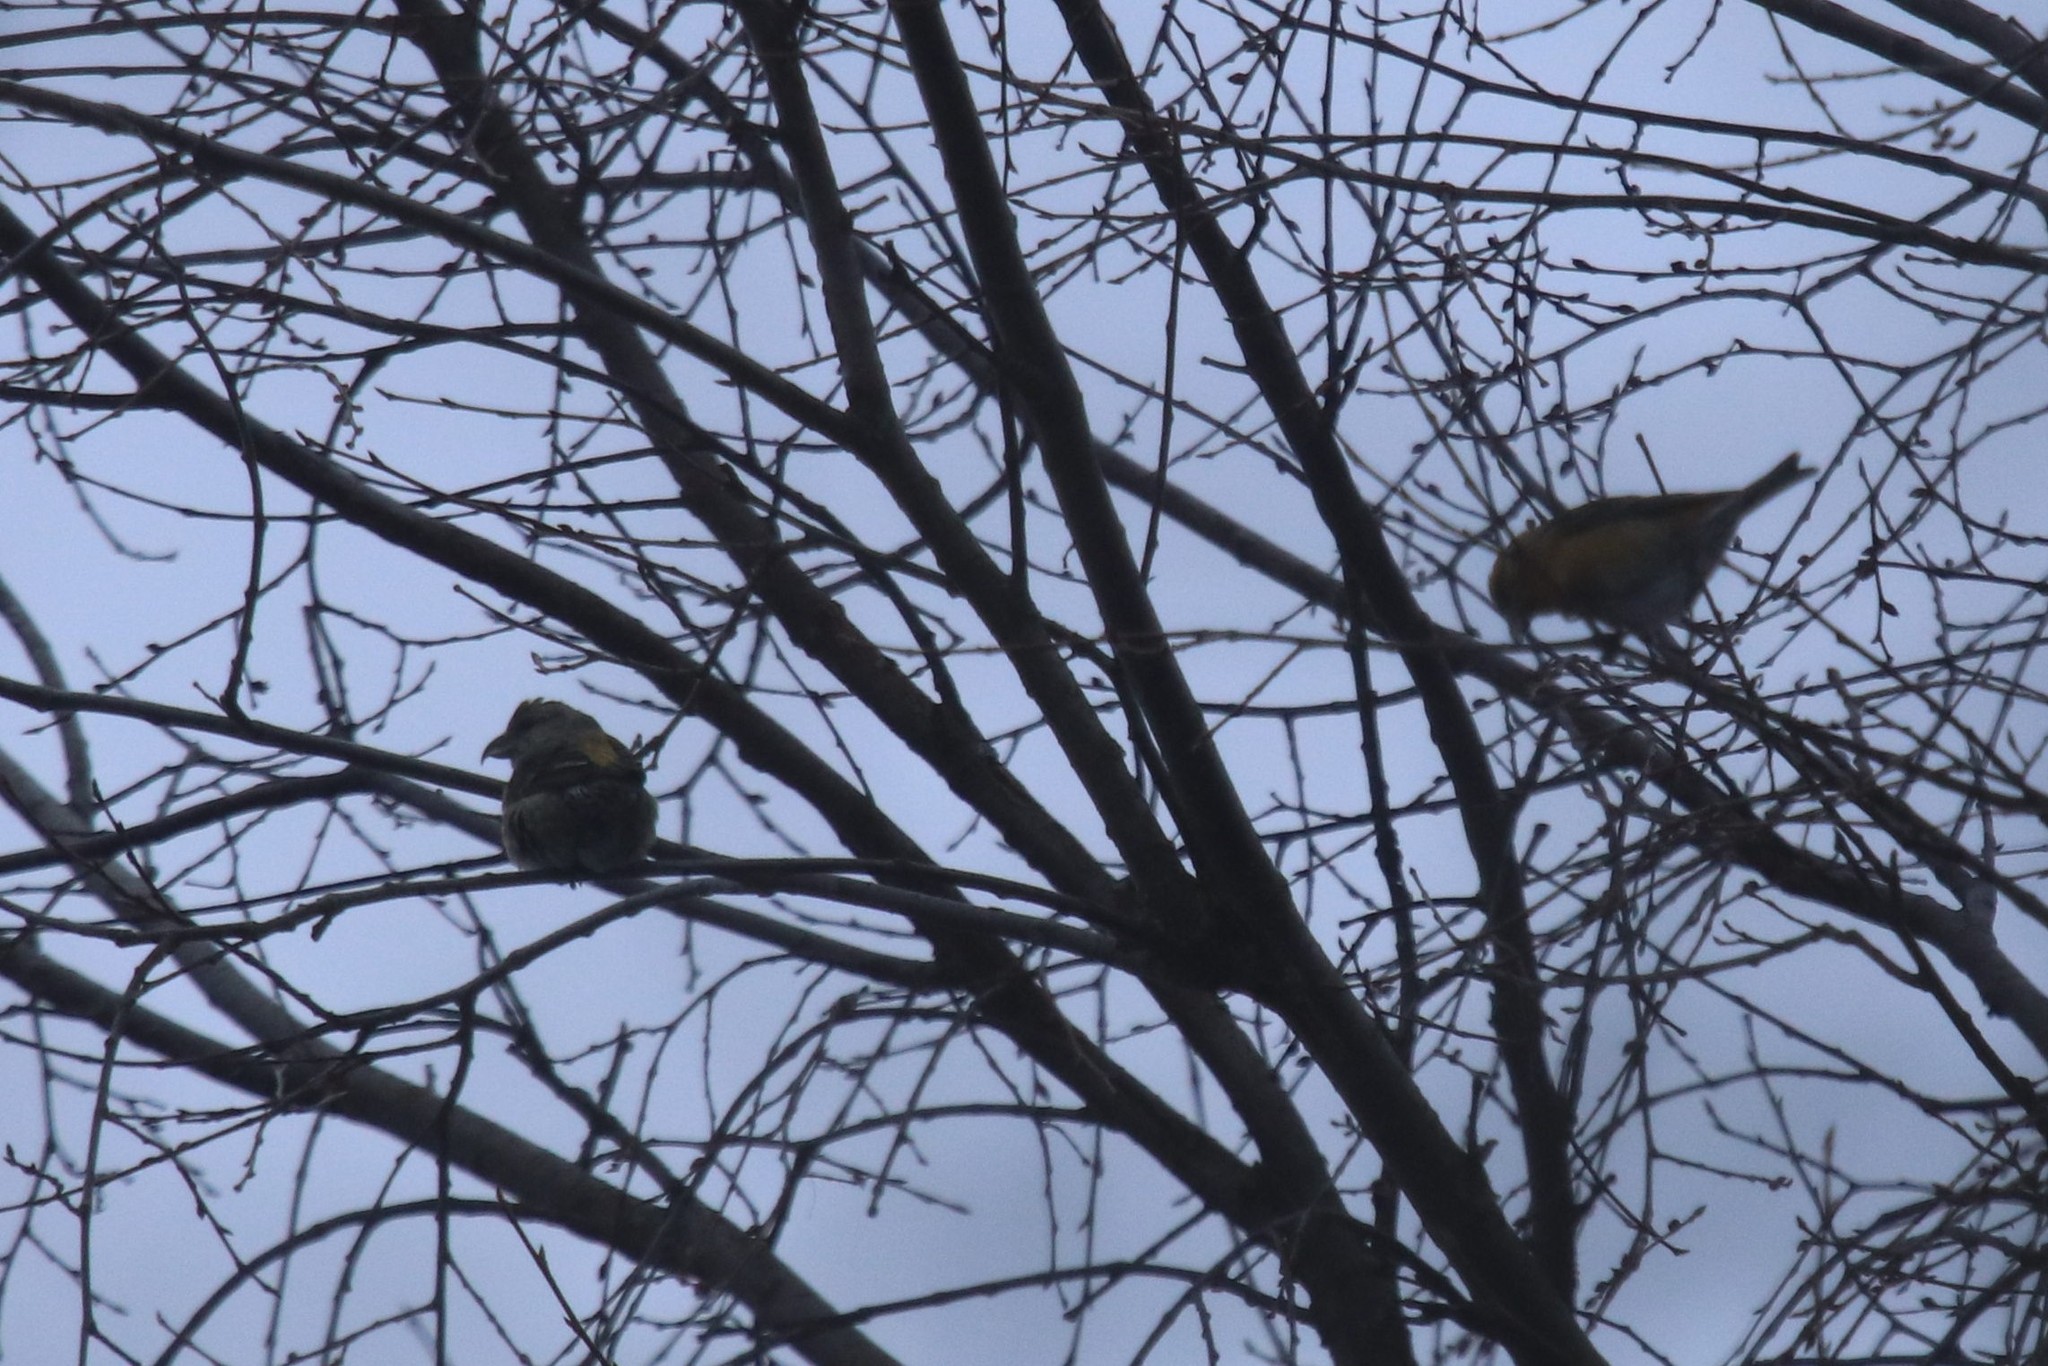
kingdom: Animalia
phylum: Chordata
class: Aves
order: Passeriformes
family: Fringillidae
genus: Loxia
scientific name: Loxia curvirostra
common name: Red crossbill
